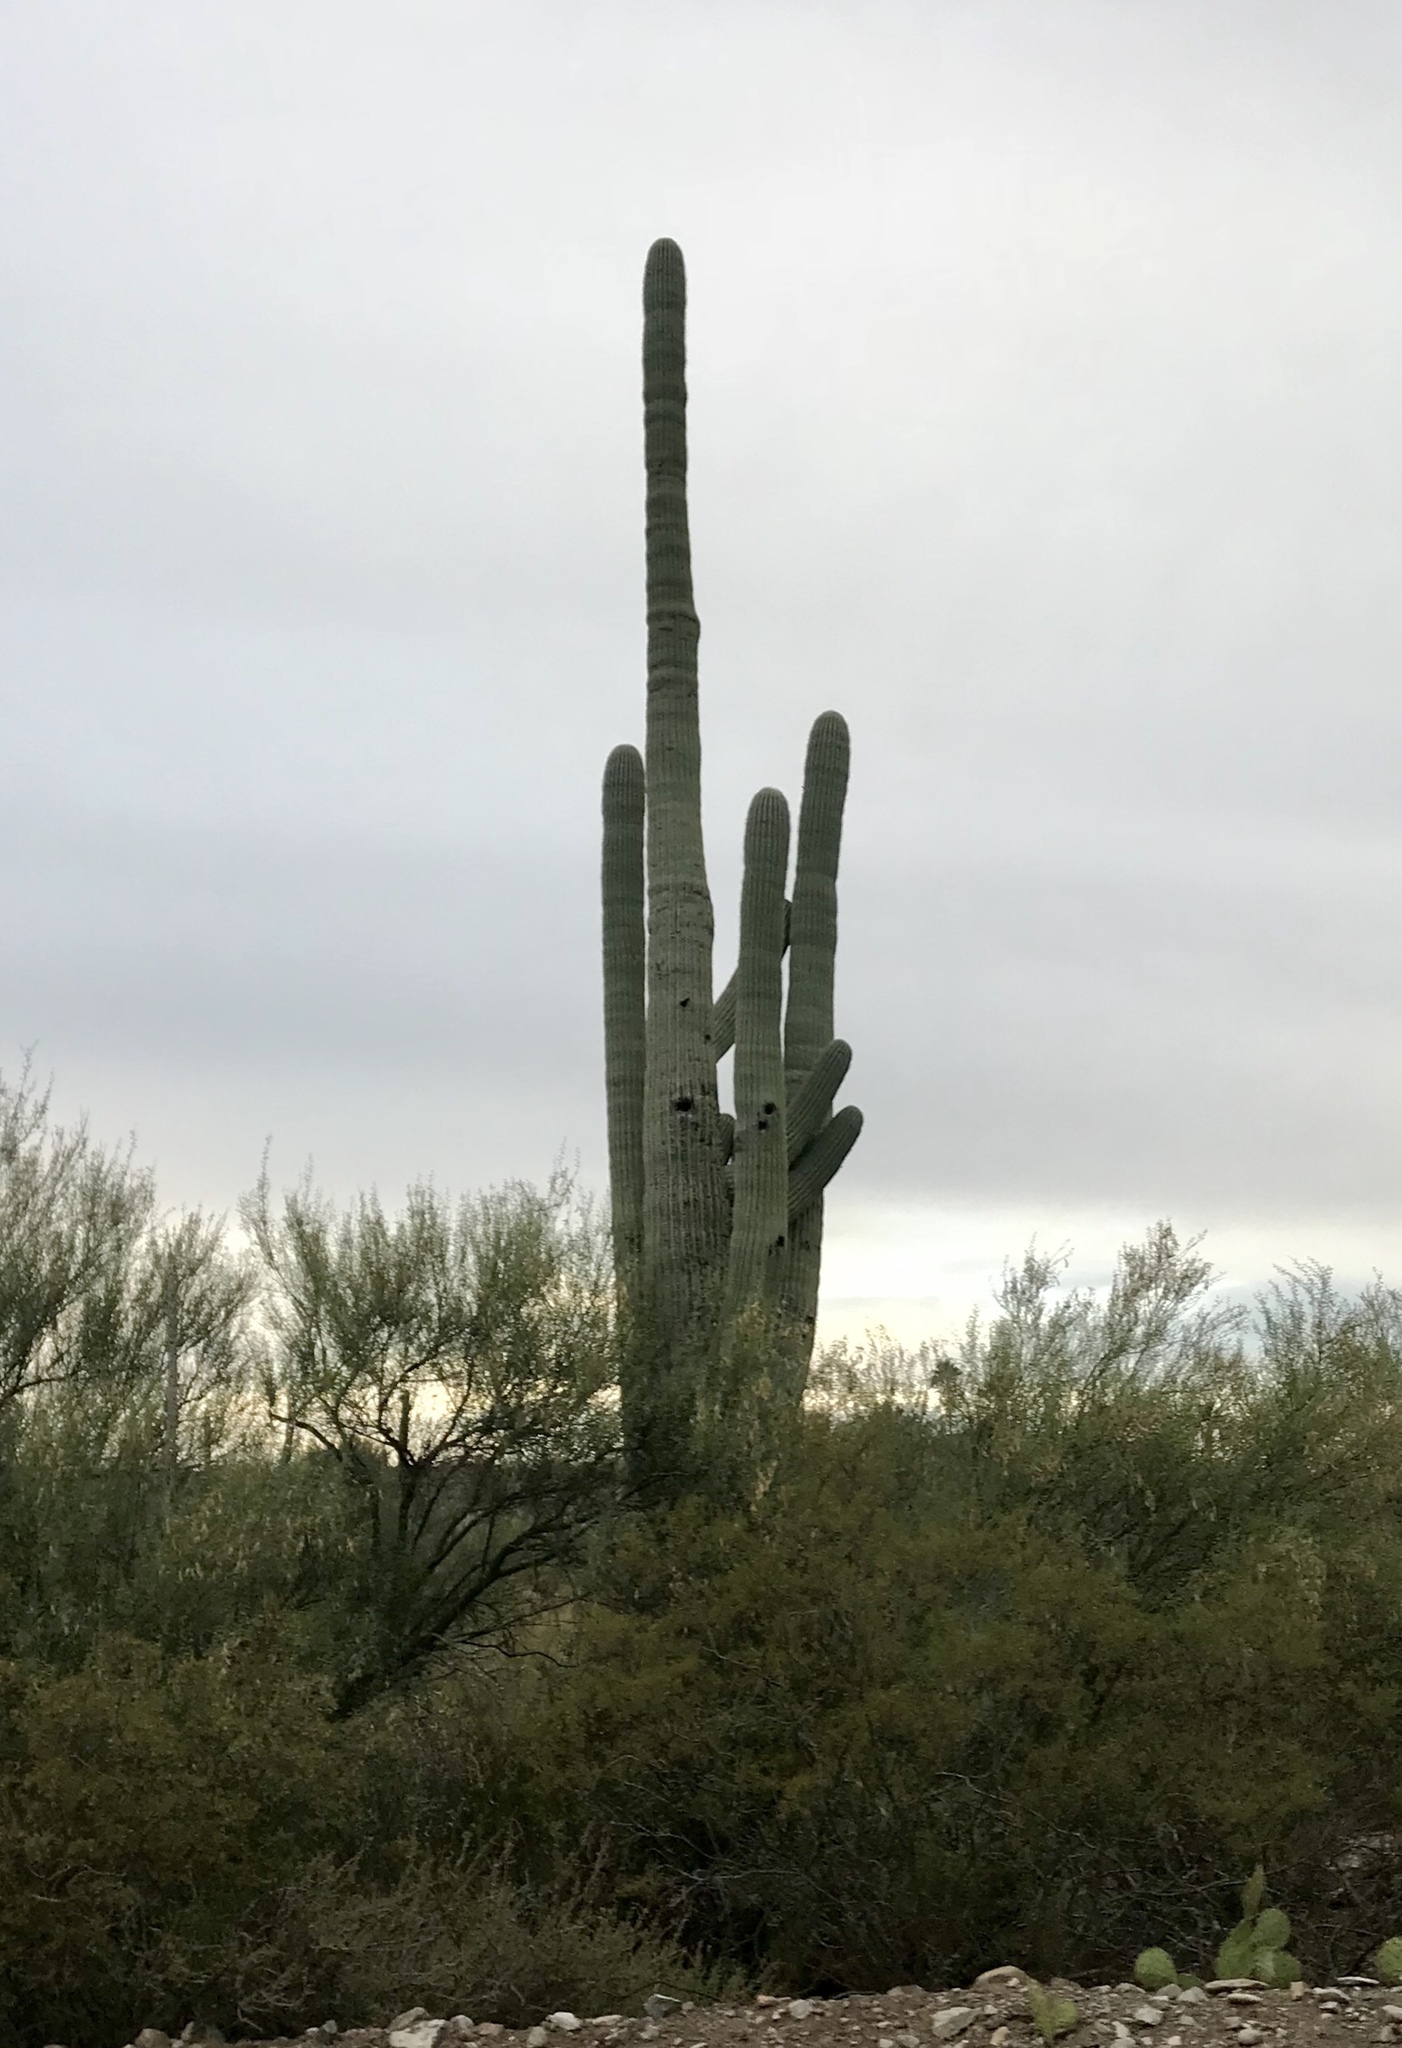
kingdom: Plantae
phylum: Tracheophyta
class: Magnoliopsida
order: Caryophyllales
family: Cactaceae
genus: Carnegiea
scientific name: Carnegiea gigantea
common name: Saguaro
